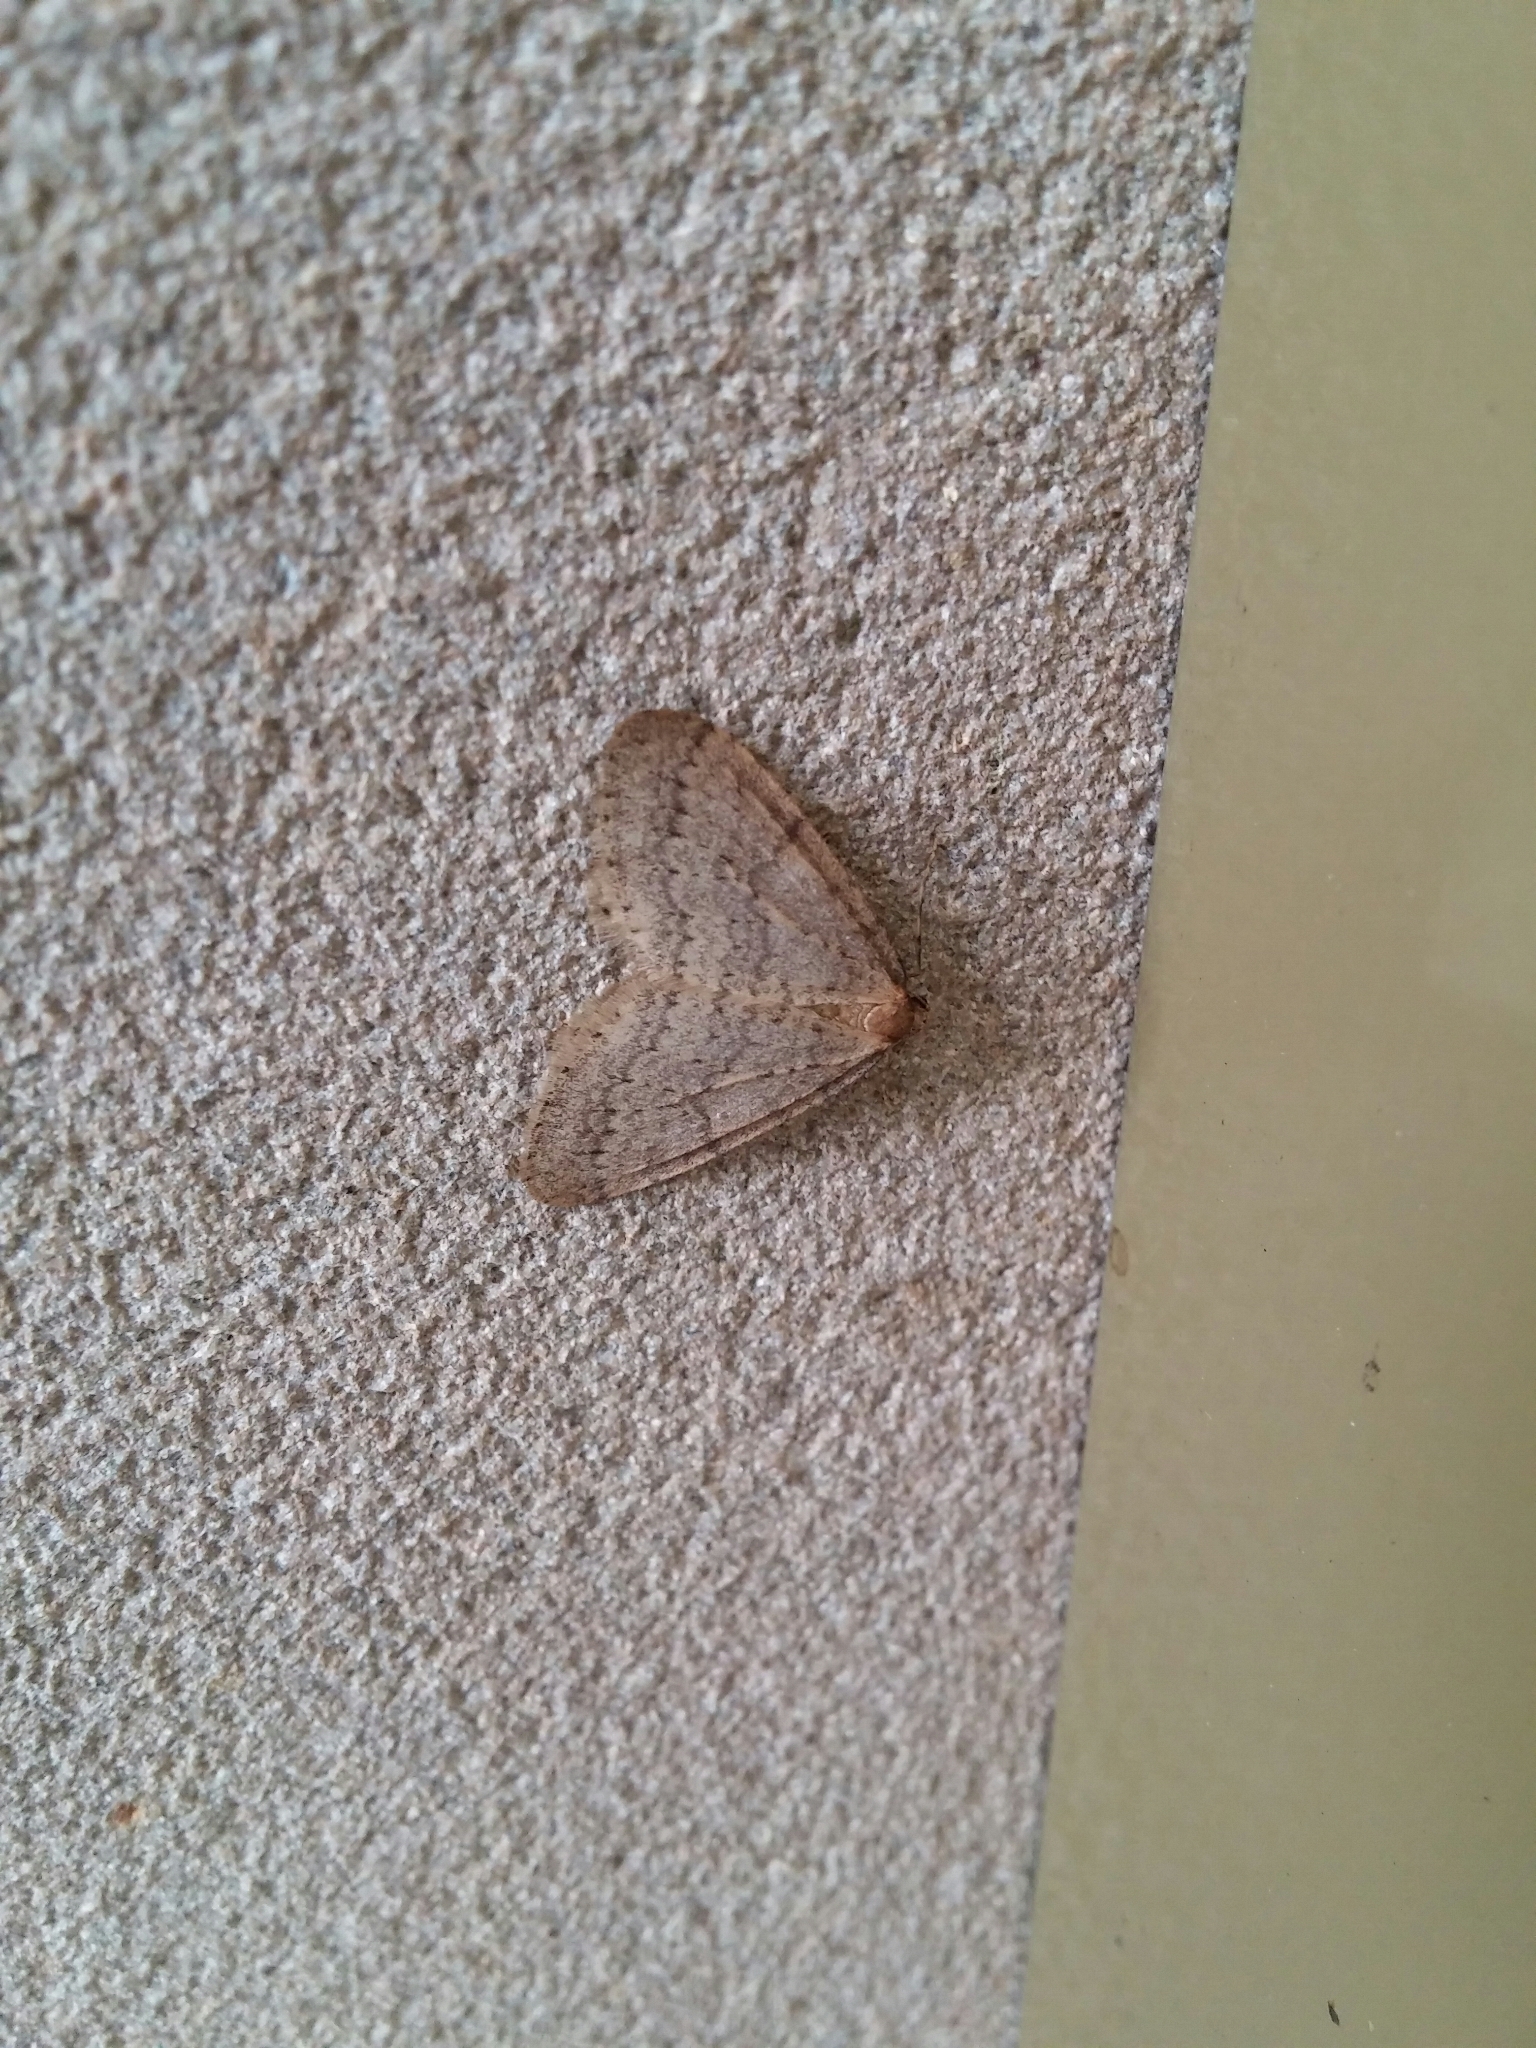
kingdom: Animalia
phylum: Arthropoda
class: Insecta
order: Lepidoptera
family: Geometridae
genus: Operophtera
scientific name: Operophtera brumata
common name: Winter moth
